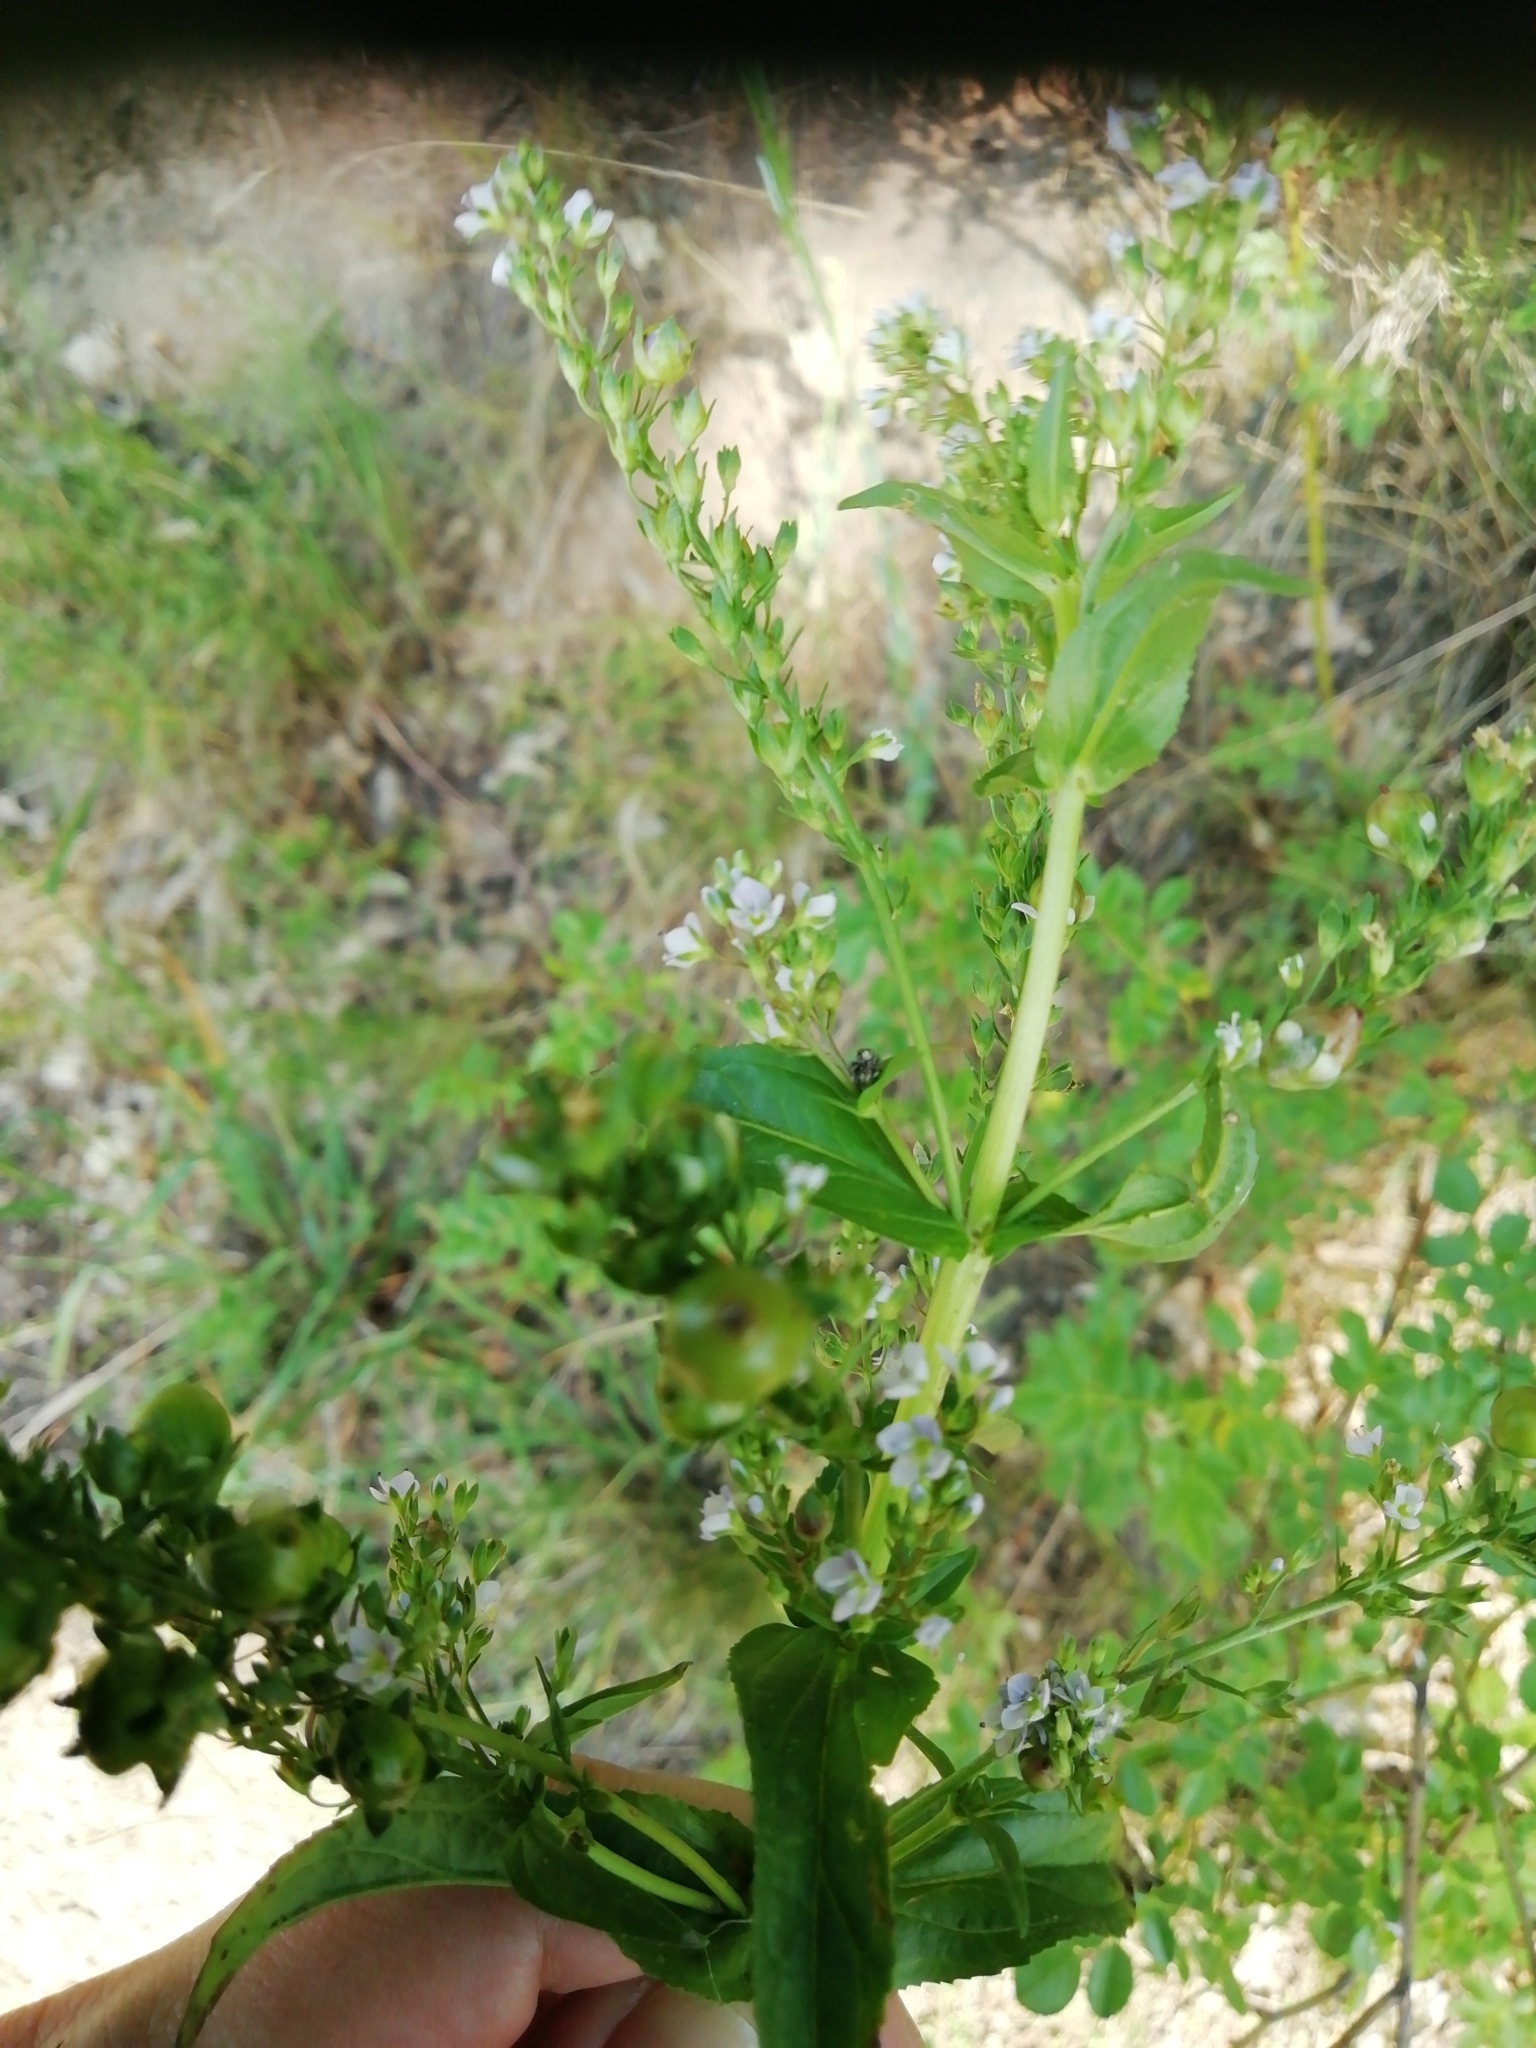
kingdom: Plantae
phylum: Tracheophyta
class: Magnoliopsida
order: Lamiales
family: Plantaginaceae
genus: Veronica
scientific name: Veronica anagallis-aquatica
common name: Water speedwell
